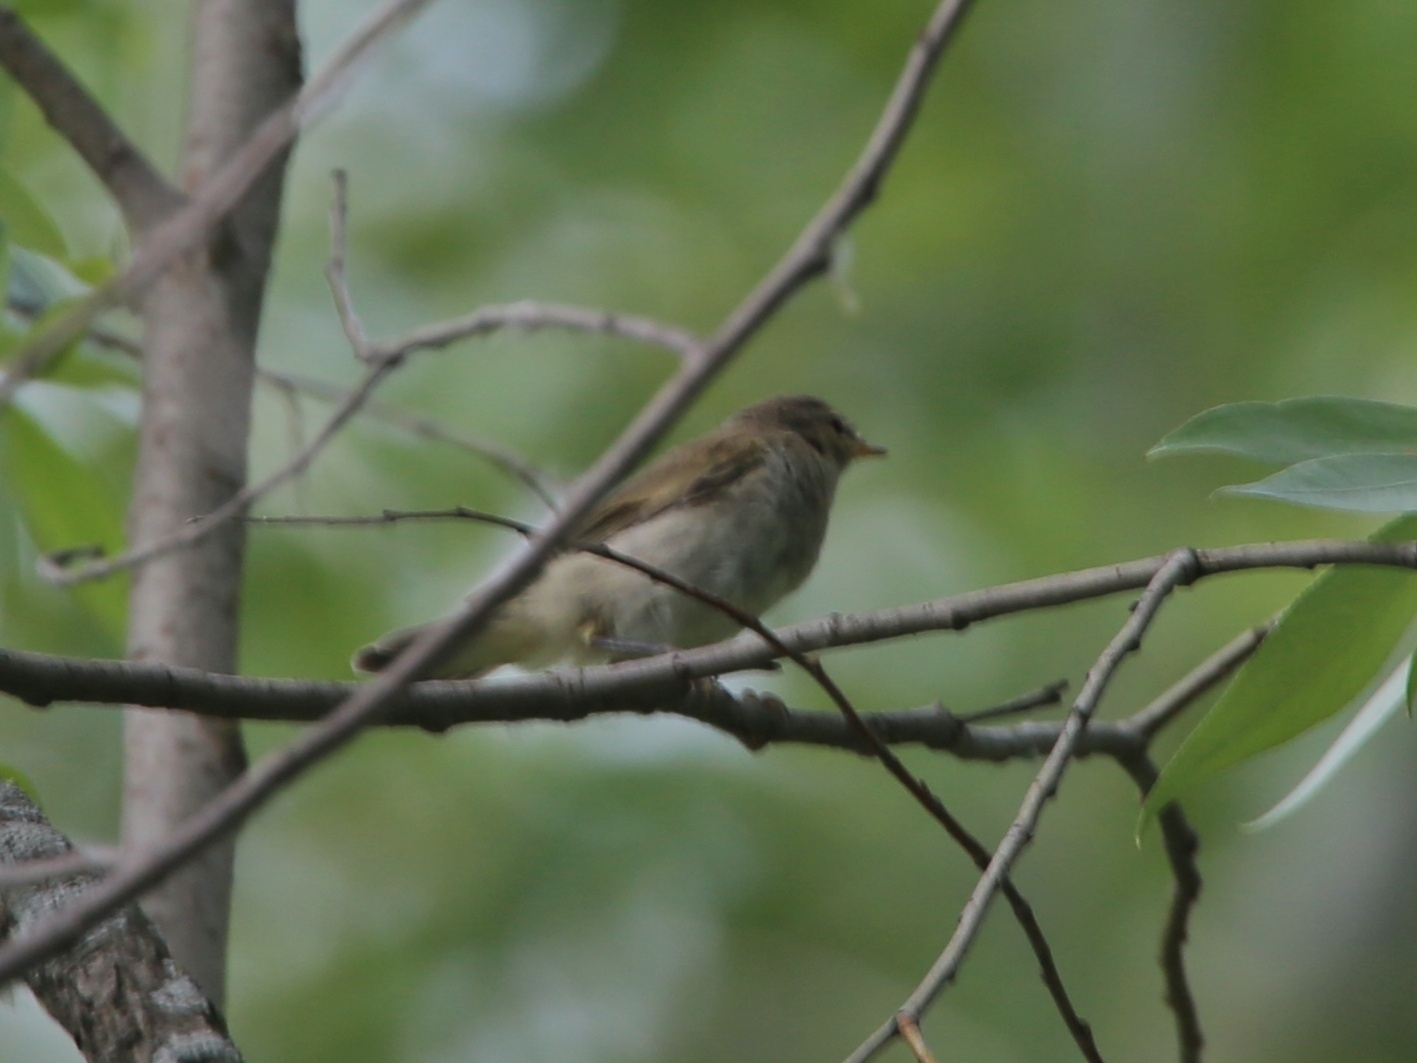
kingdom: Animalia
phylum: Chordata
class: Aves
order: Passeriformes
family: Phylloscopidae
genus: Phylloscopus
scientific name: Phylloscopus collybita
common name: Common chiffchaff
